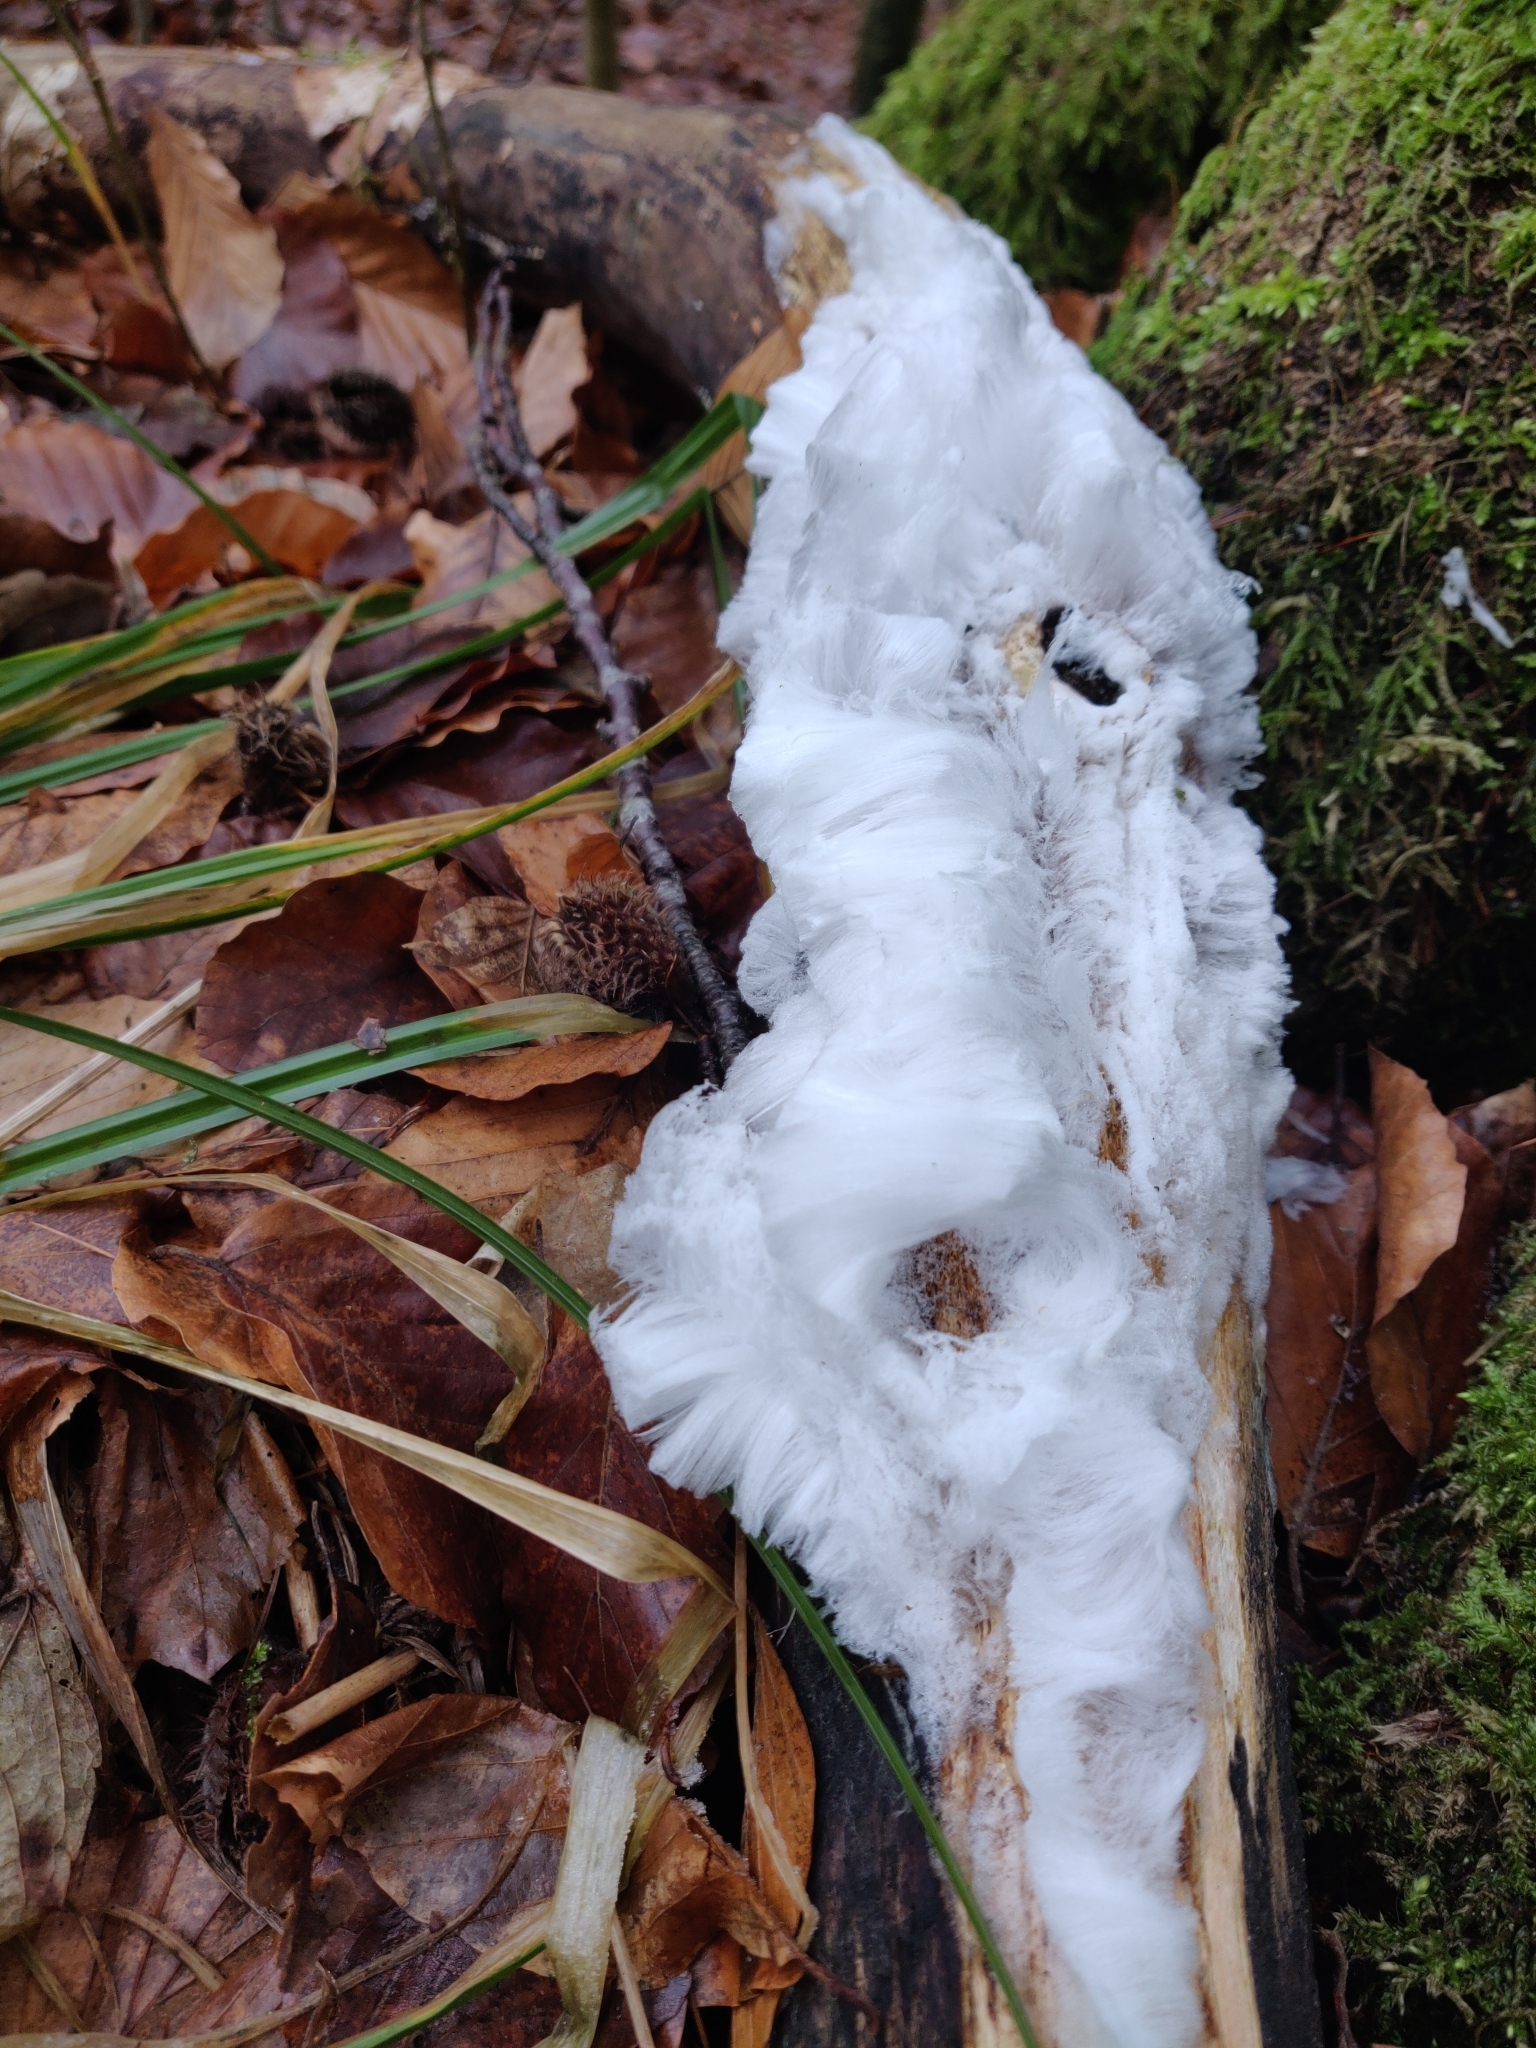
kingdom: Fungi
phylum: Basidiomycota
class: Agaricomycetes
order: Auriculariales
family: Auriculariaceae
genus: Exidiopsis
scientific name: Exidiopsis effusa
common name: Hair ice crust
